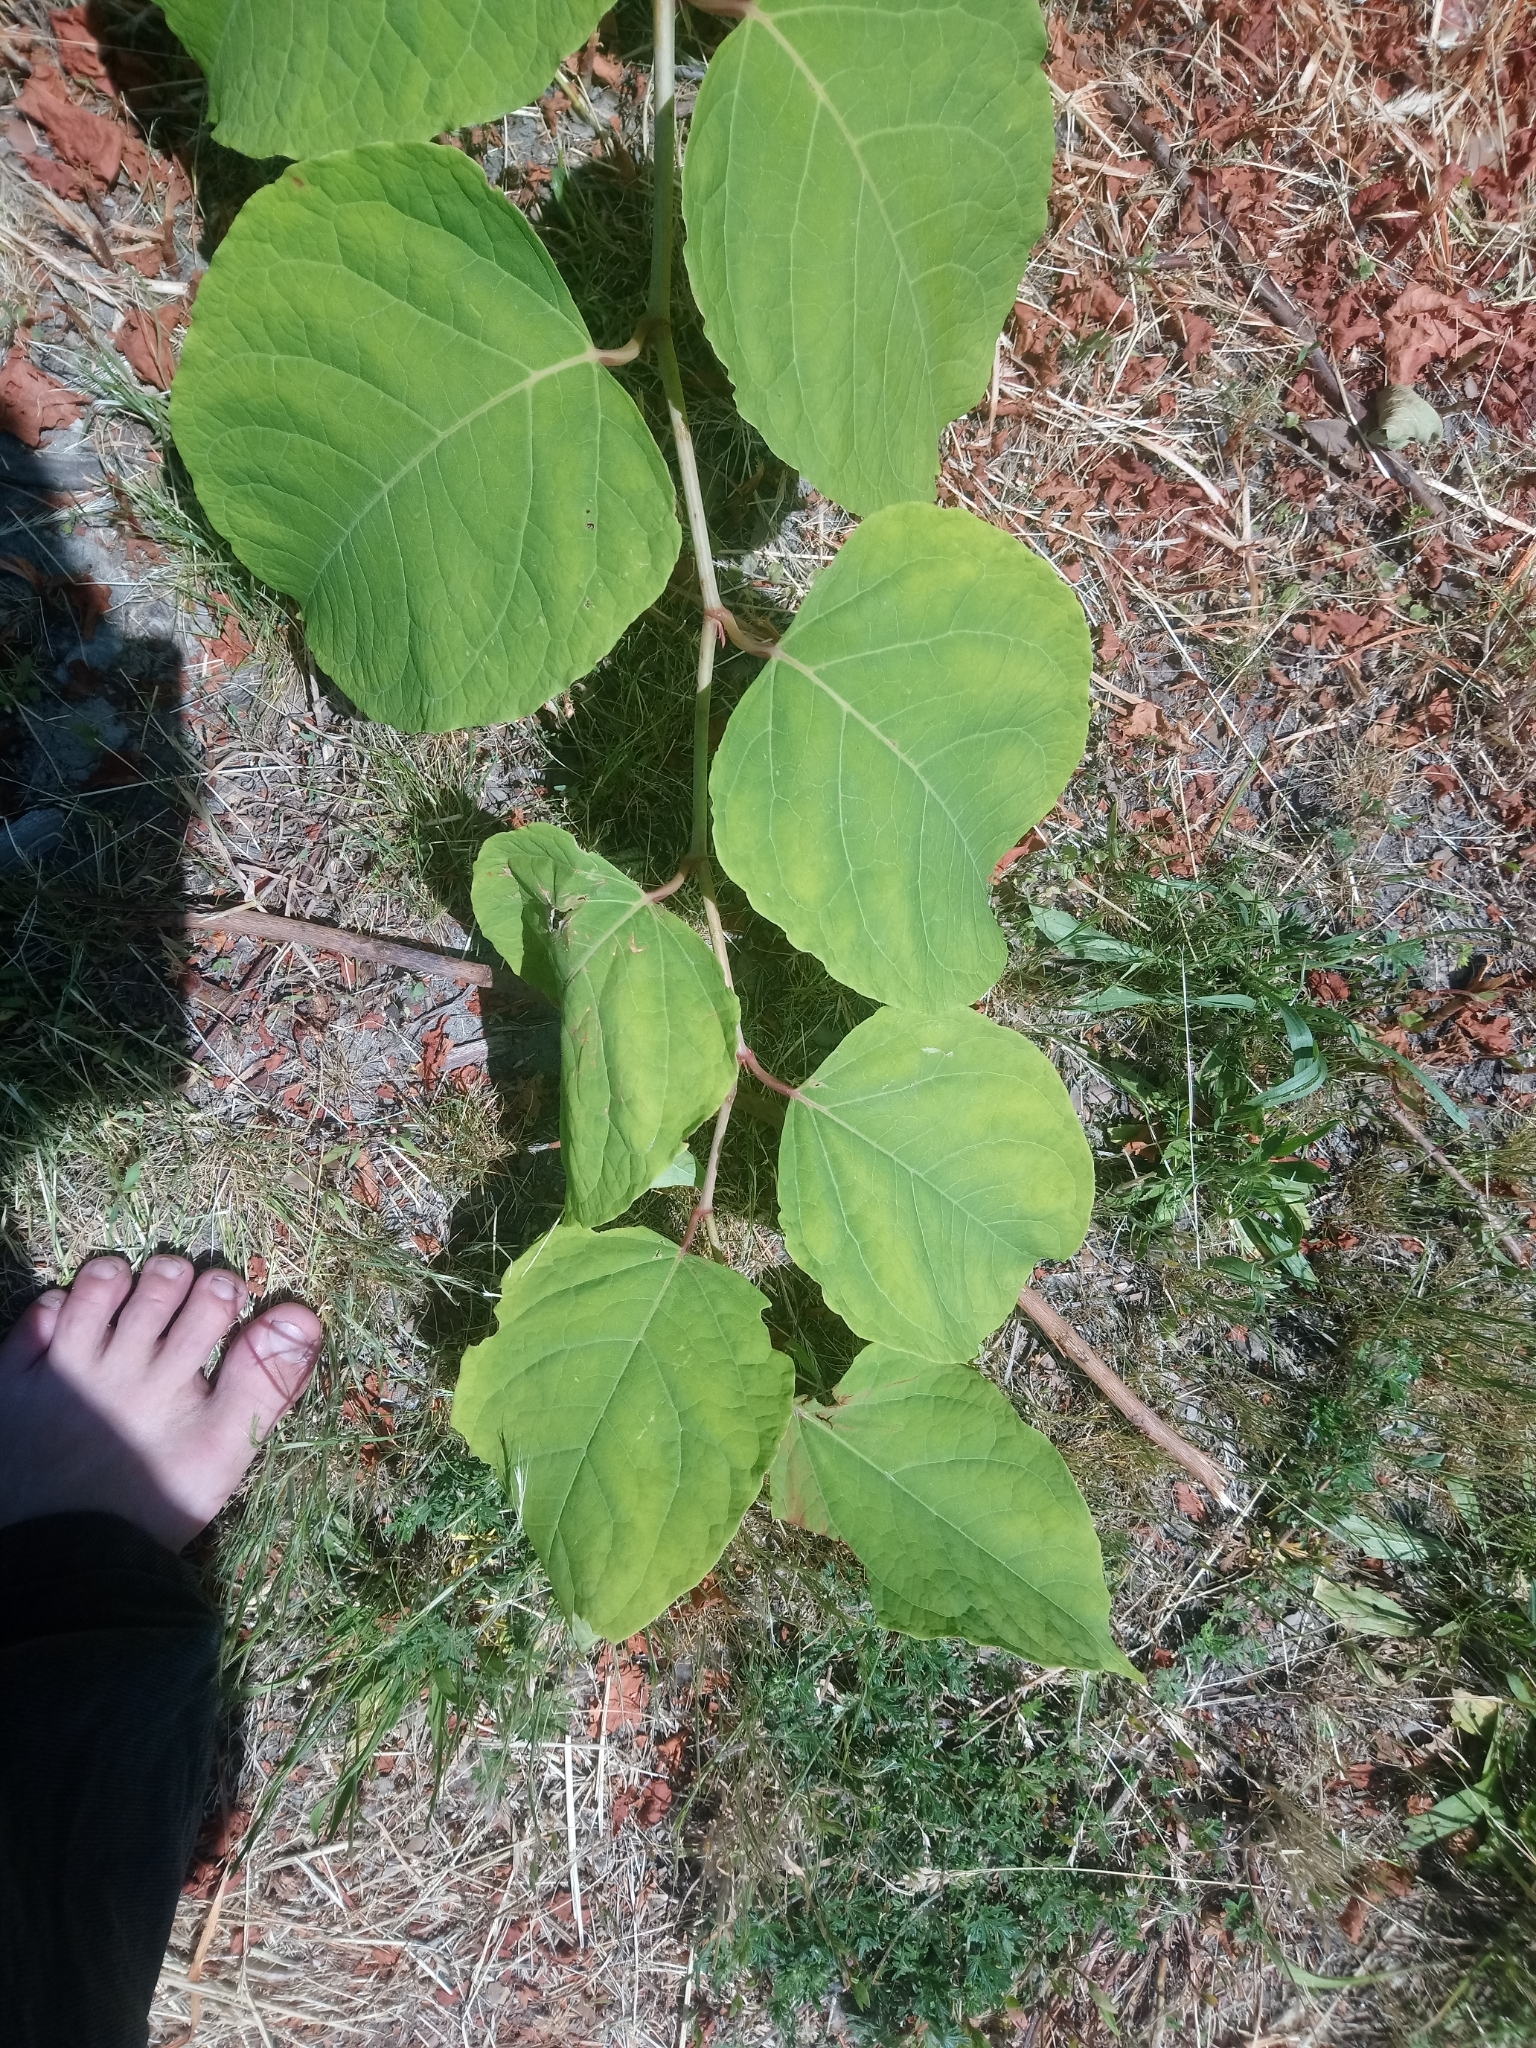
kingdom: Plantae
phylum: Tracheophyta
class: Magnoliopsida
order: Caryophyllales
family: Polygonaceae
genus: Reynoutria
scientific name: Reynoutria
